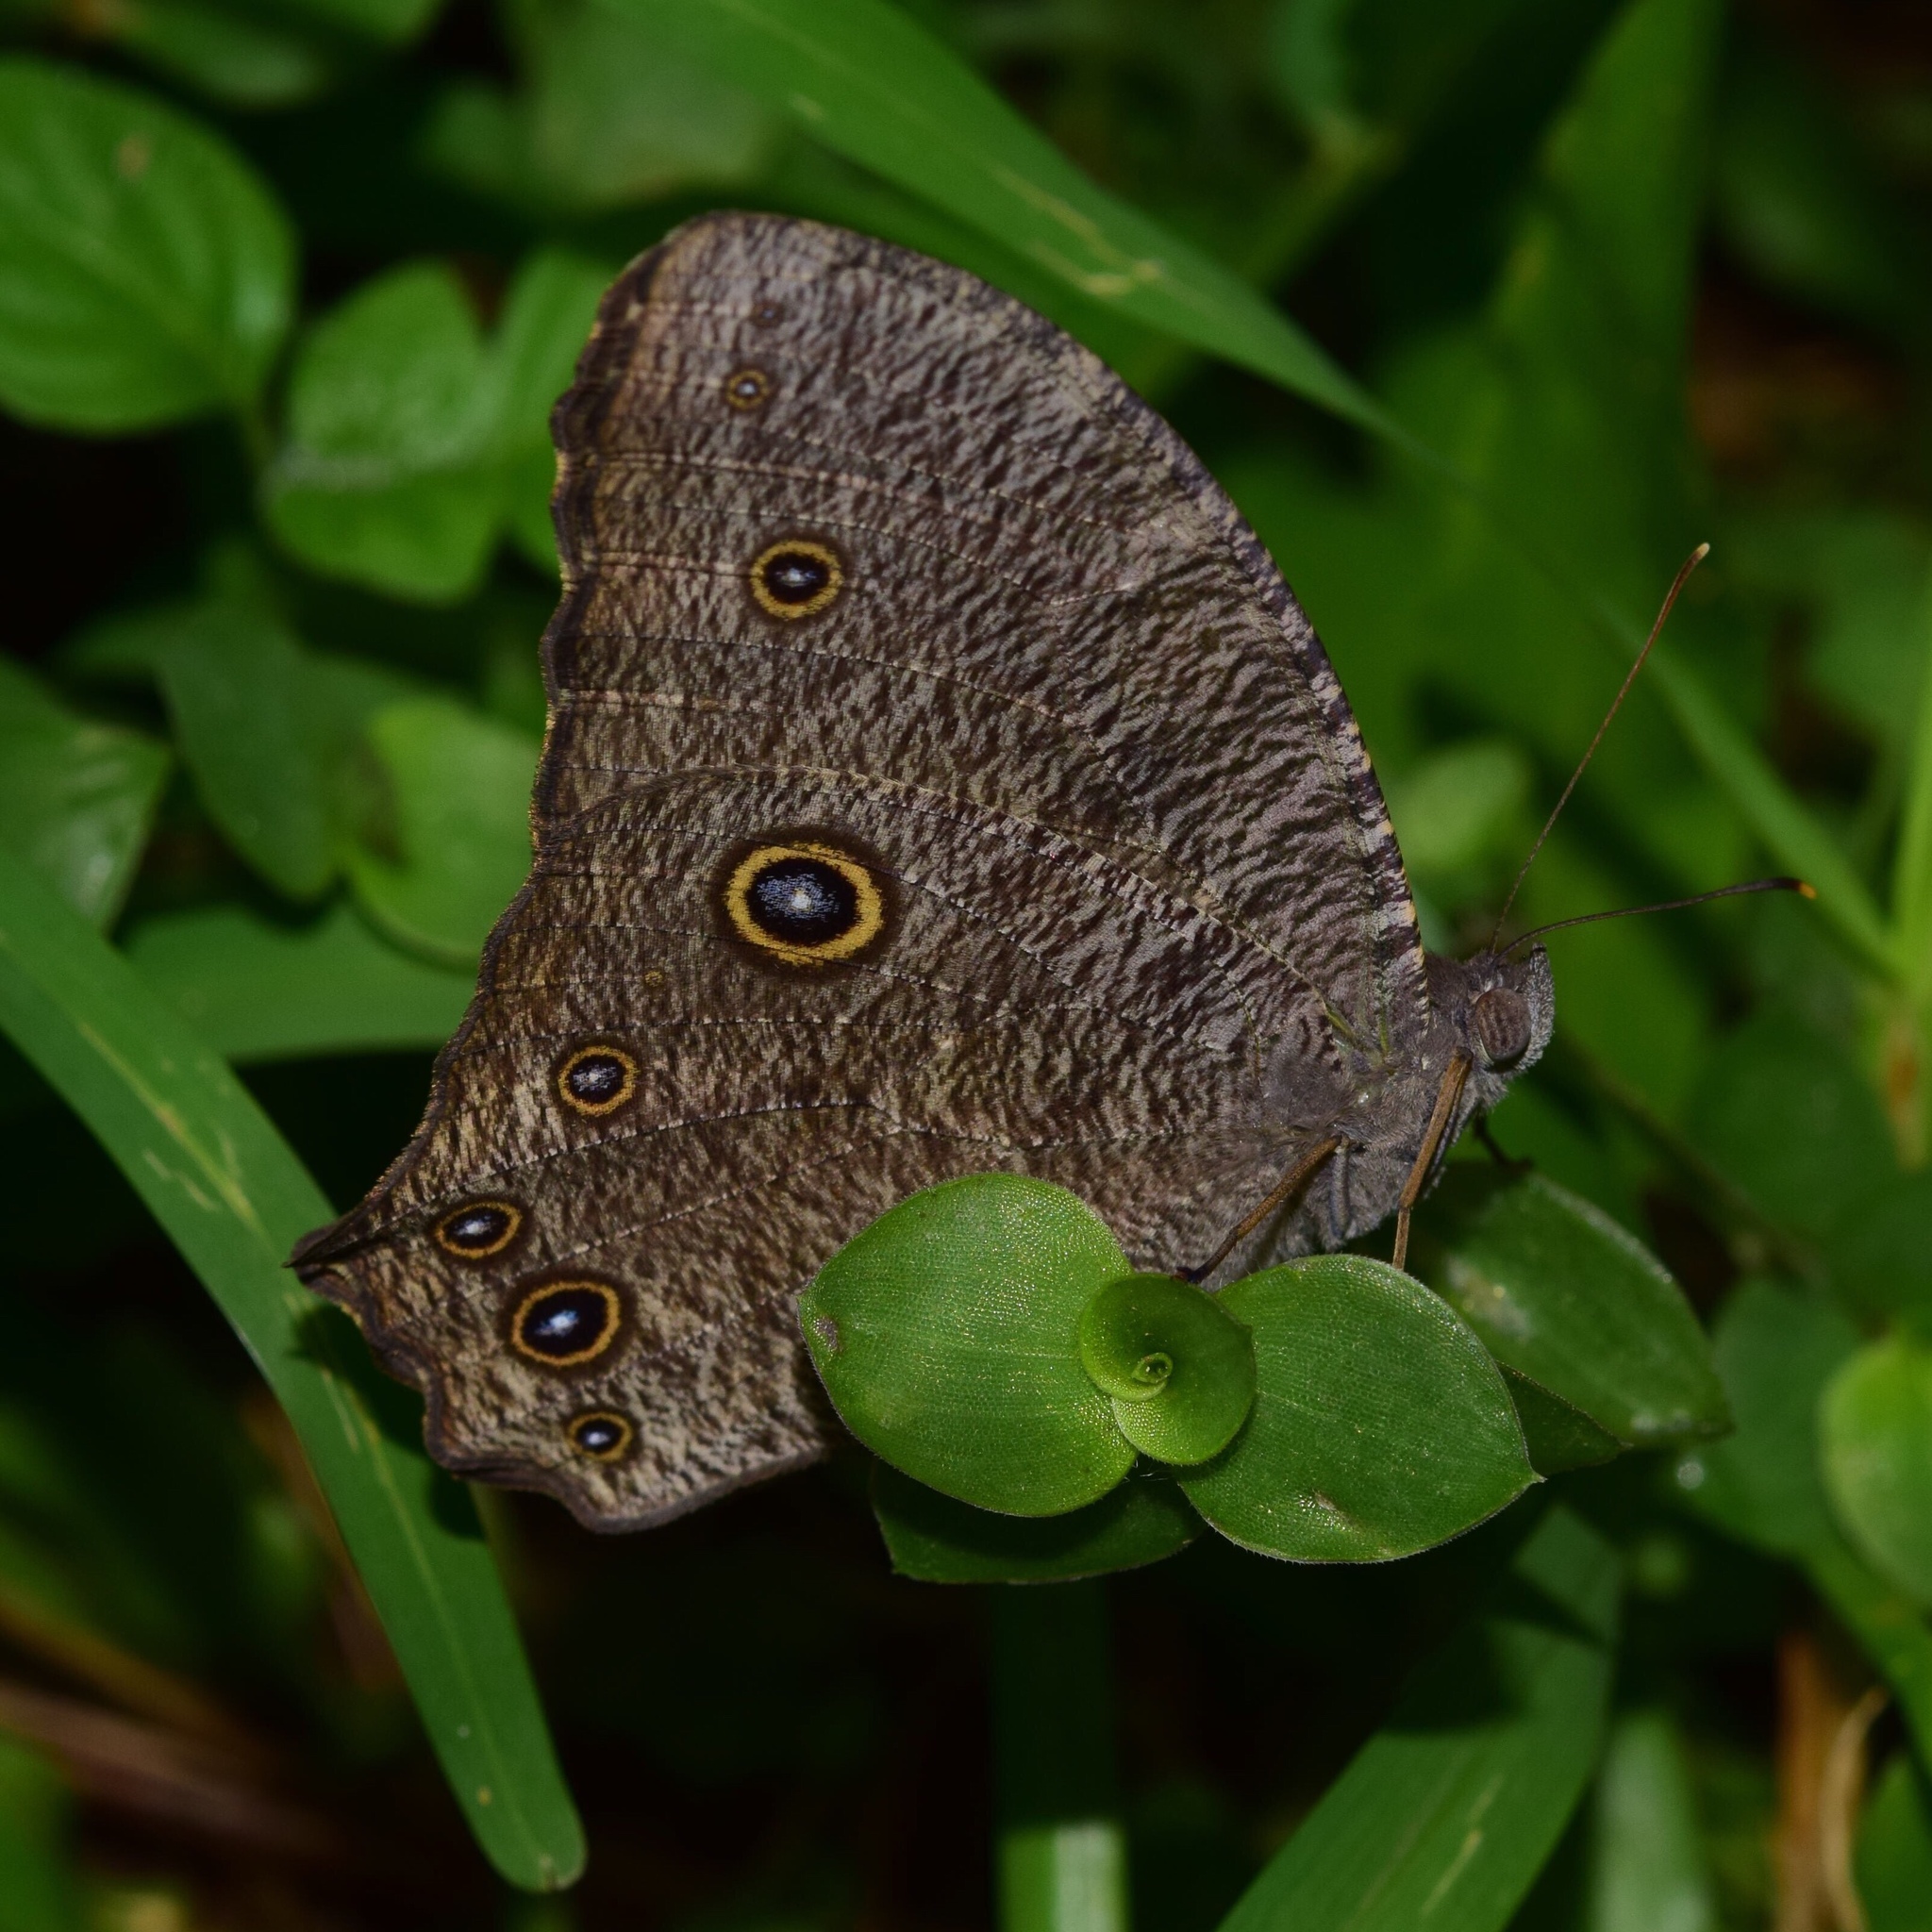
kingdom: Animalia
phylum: Arthropoda
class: Insecta
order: Lepidoptera
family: Nymphalidae
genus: Melanitis
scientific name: Melanitis leda
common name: Twilight brown
